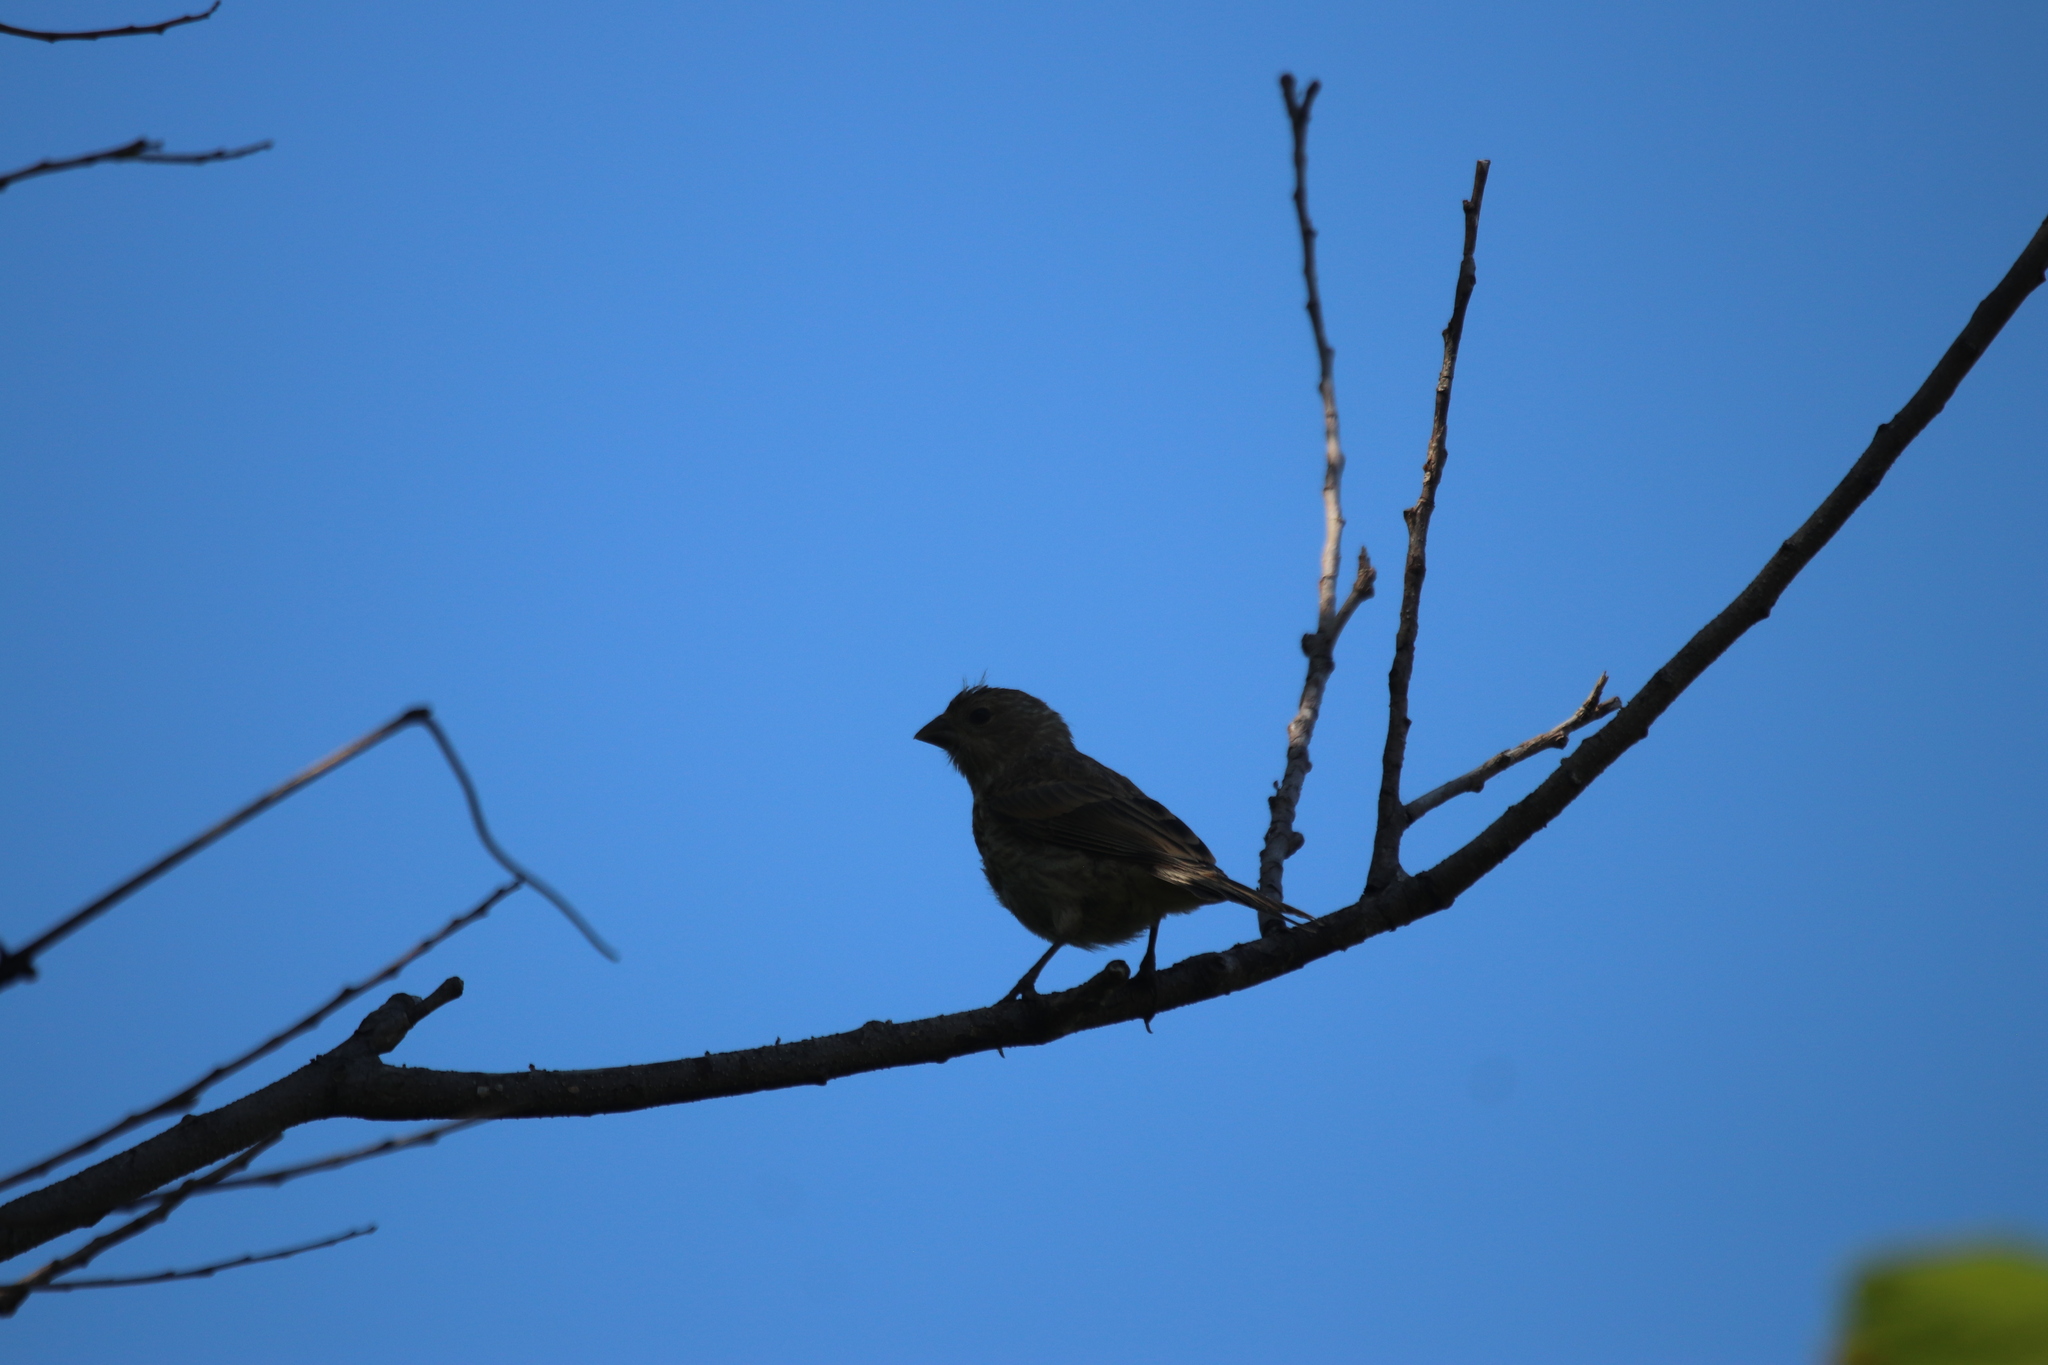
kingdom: Animalia
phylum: Chordata
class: Aves
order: Passeriformes
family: Fringillidae
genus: Haemorhous
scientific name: Haemorhous purpureus
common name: Purple finch
